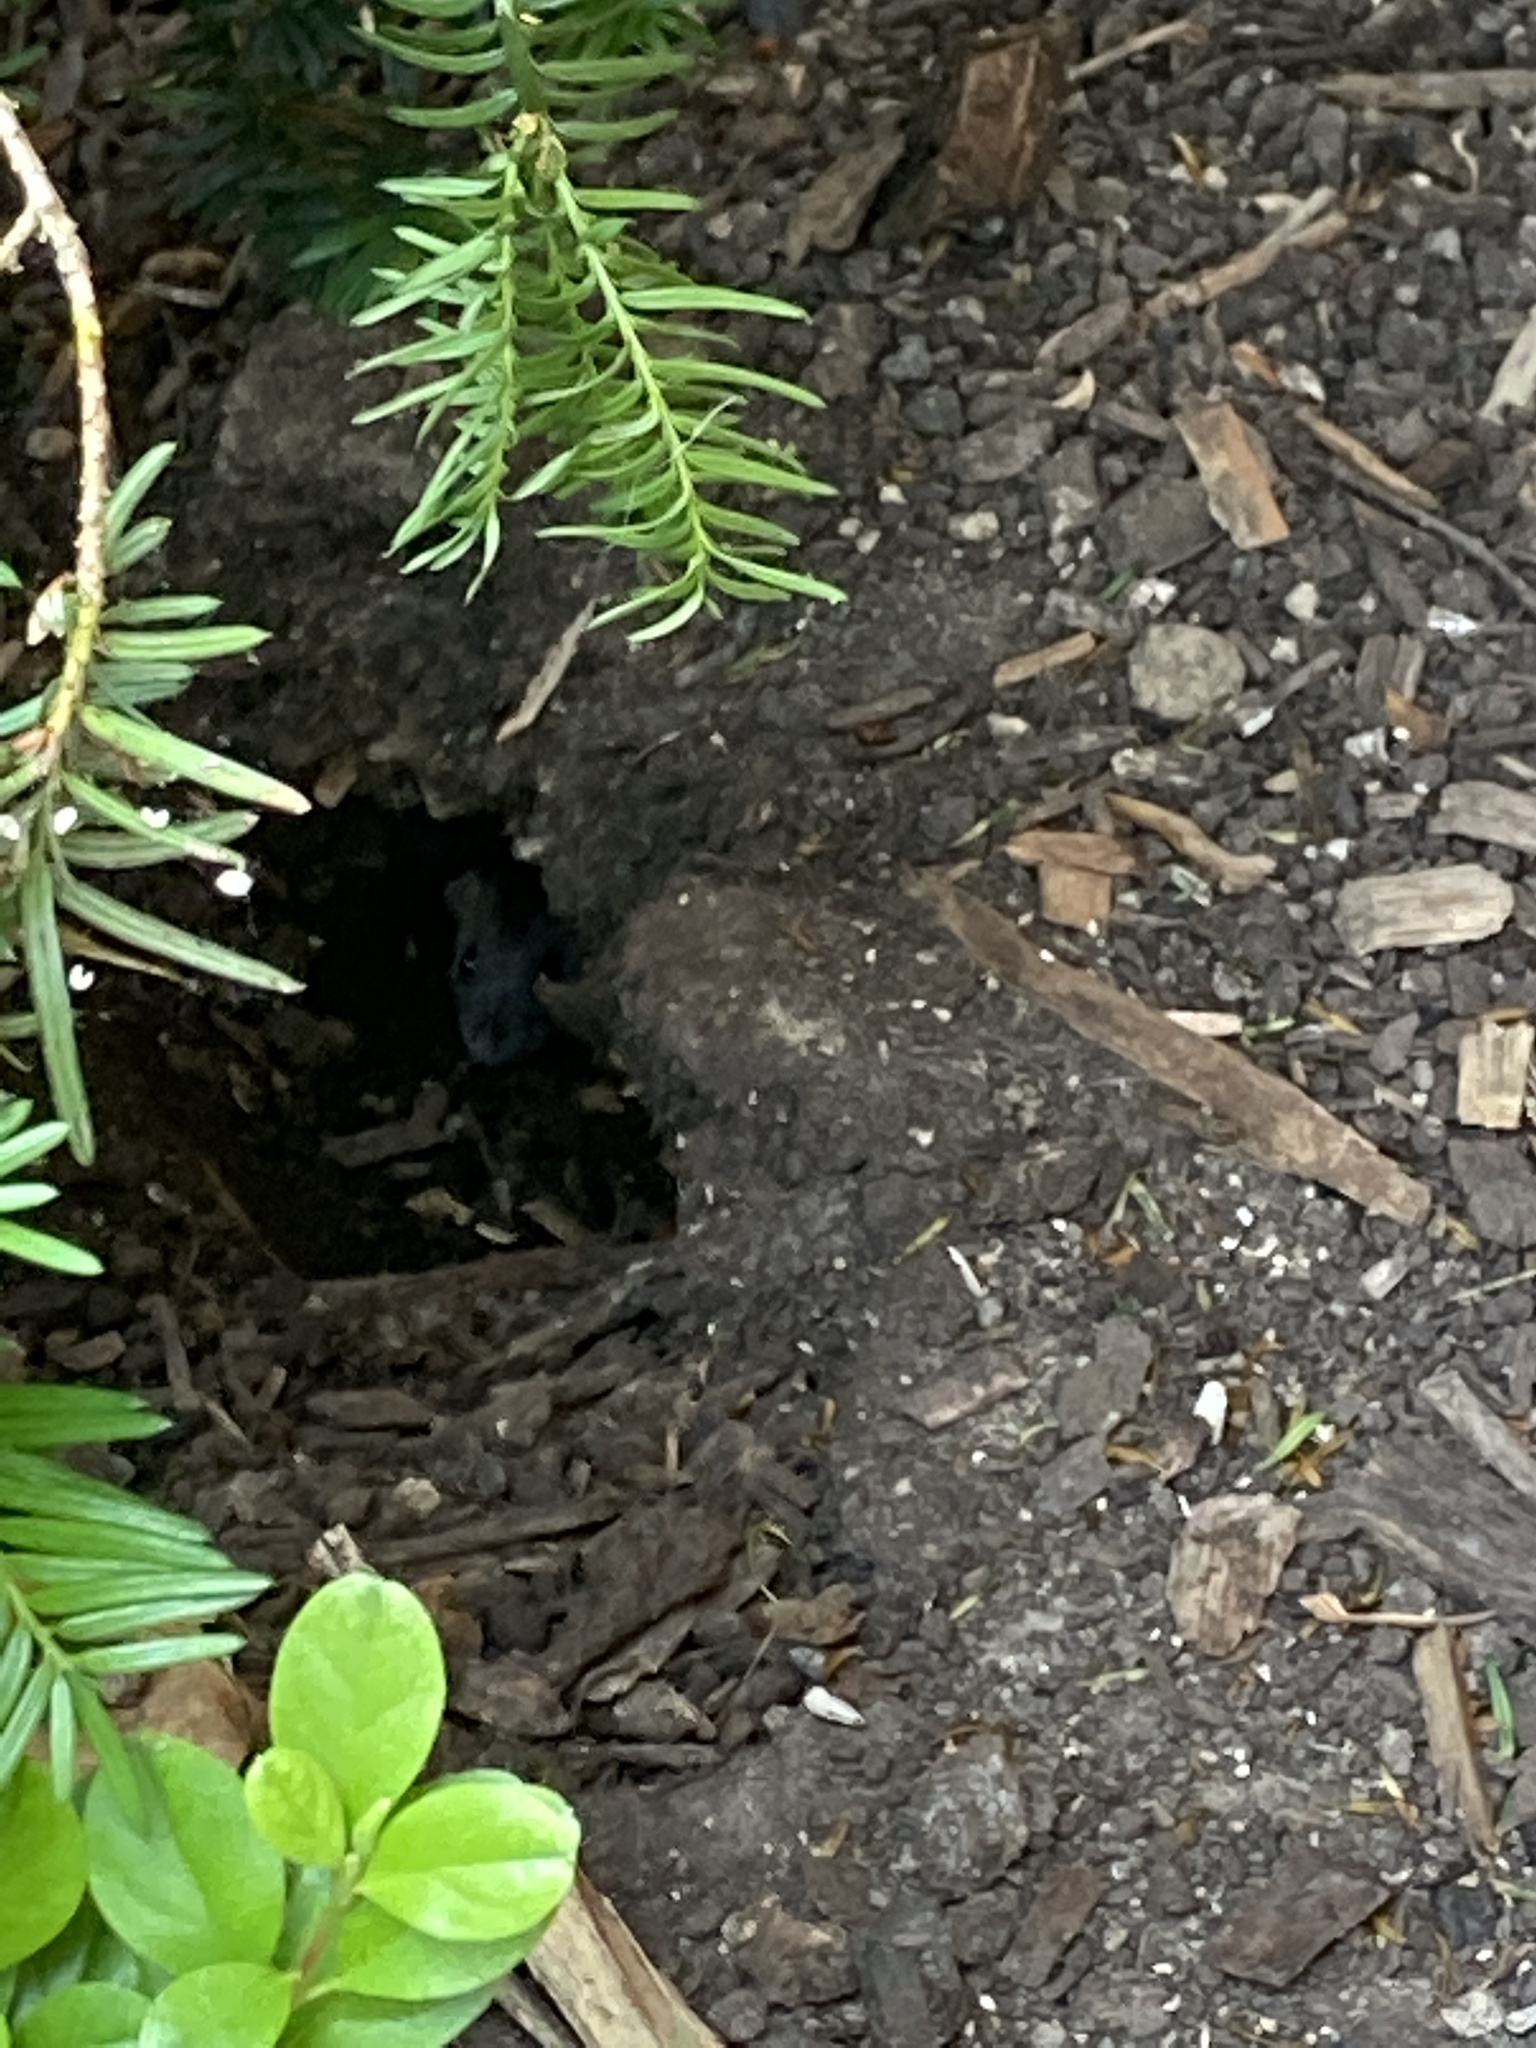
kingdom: Animalia
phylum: Chordata
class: Mammalia
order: Rodentia
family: Muridae
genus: Rattus
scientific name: Rattus norvegicus
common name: Brown rat
